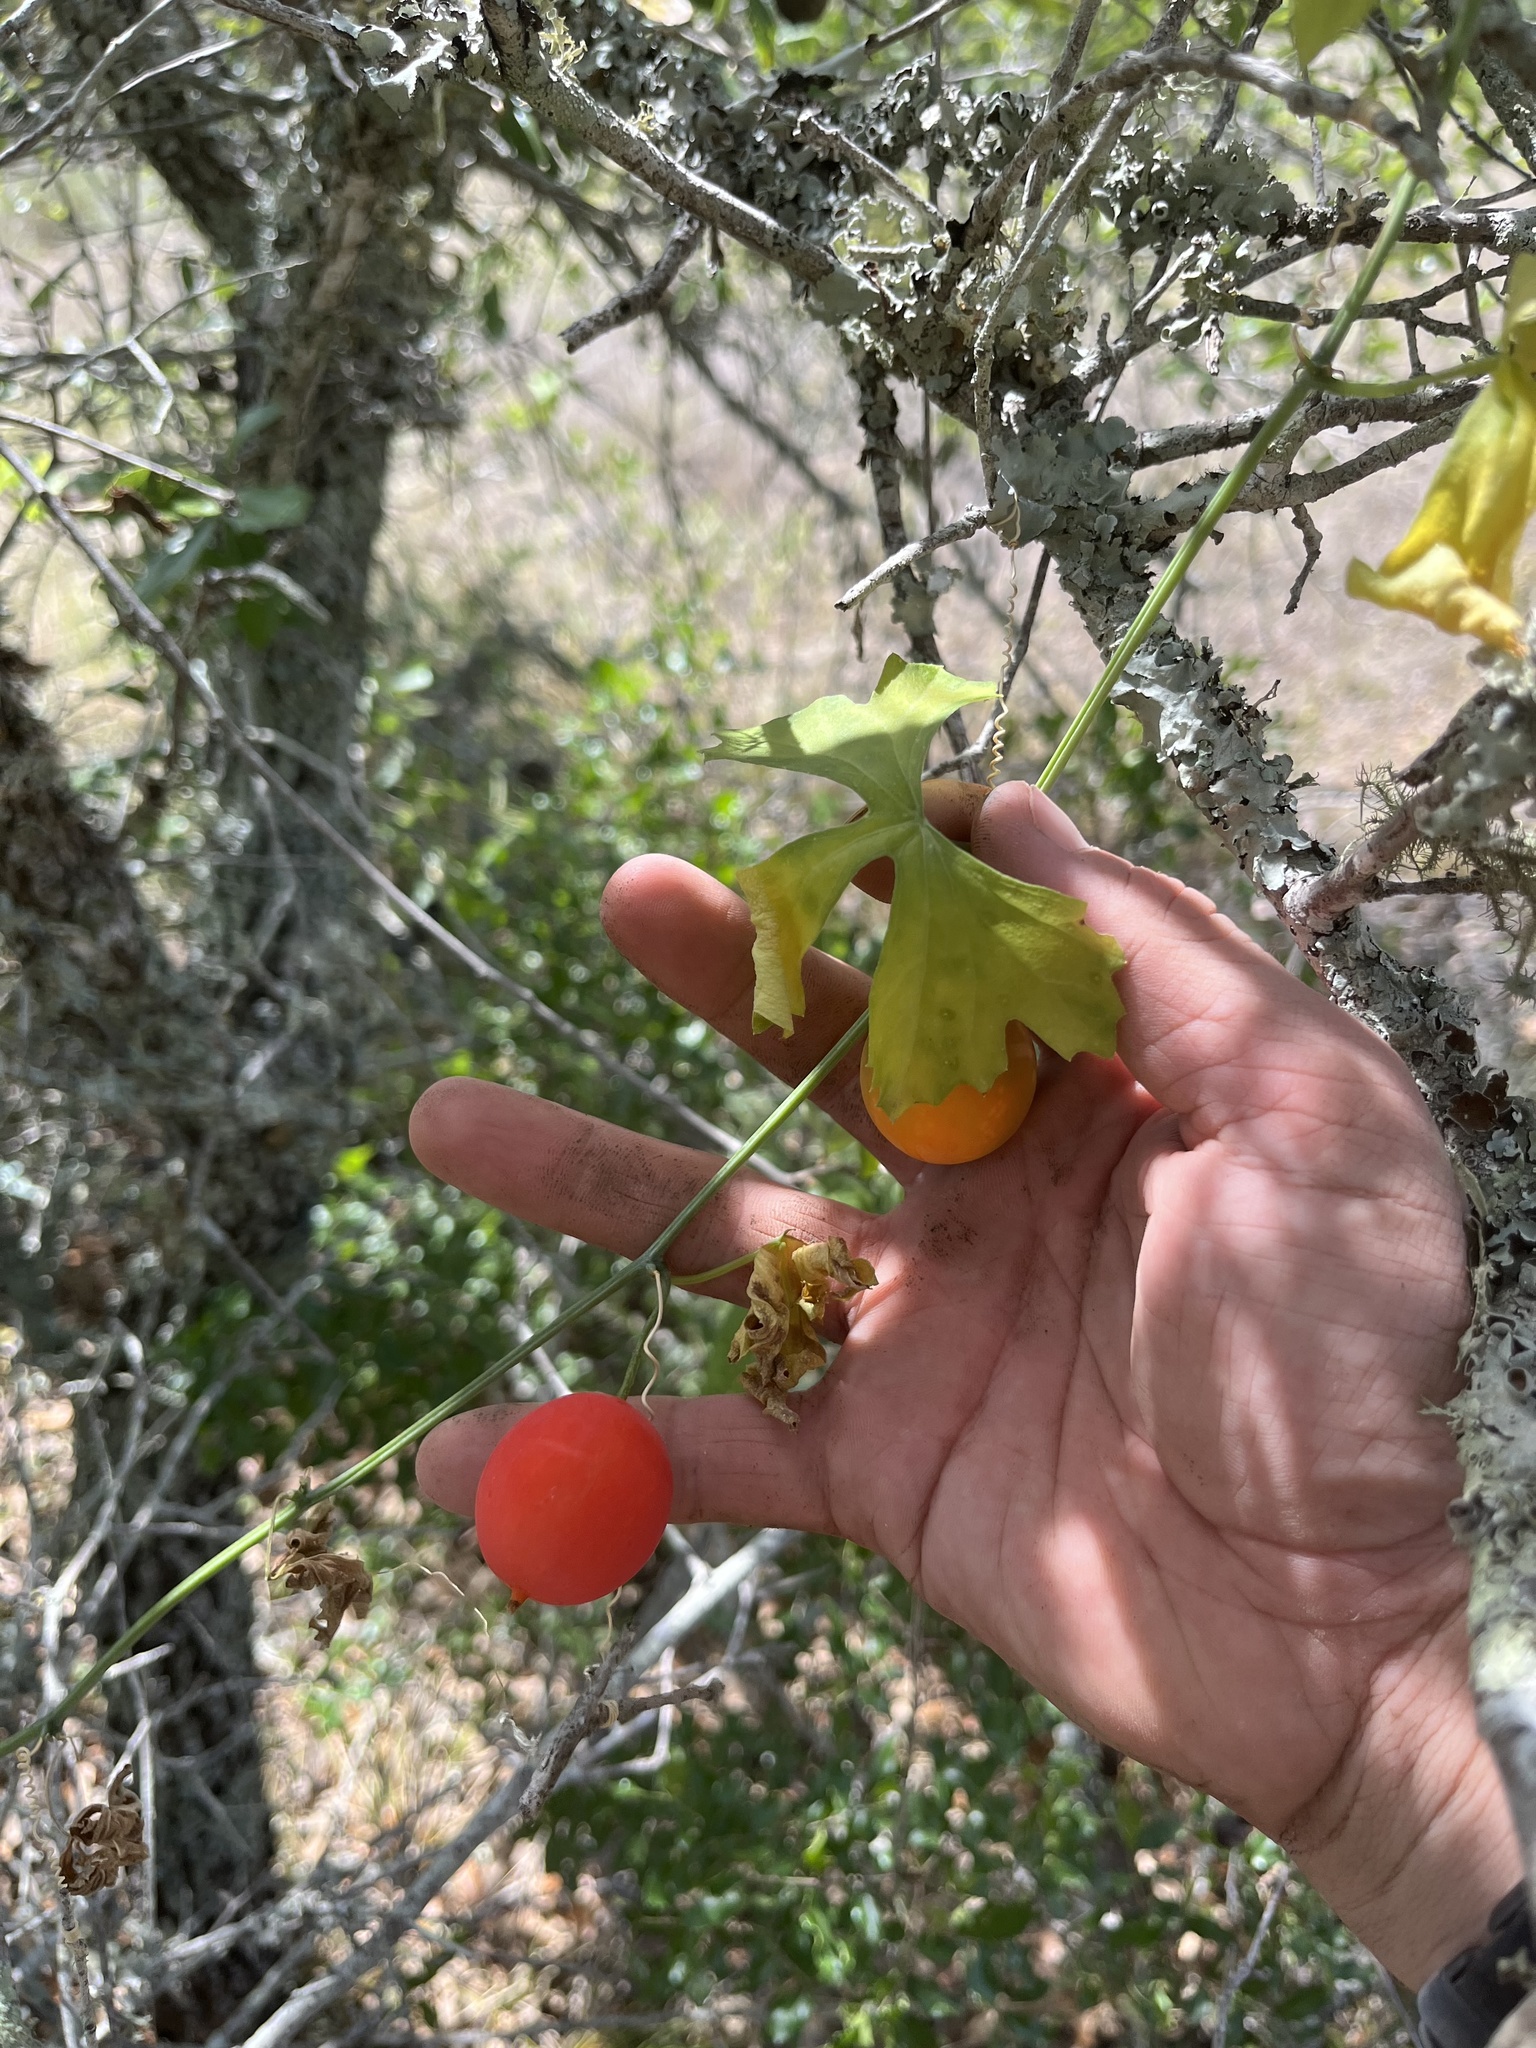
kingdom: Plantae
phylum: Tracheophyta
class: Magnoliopsida
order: Cucurbitales
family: Cucurbitaceae
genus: Ibervillea
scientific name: Ibervillea lindheimeri
